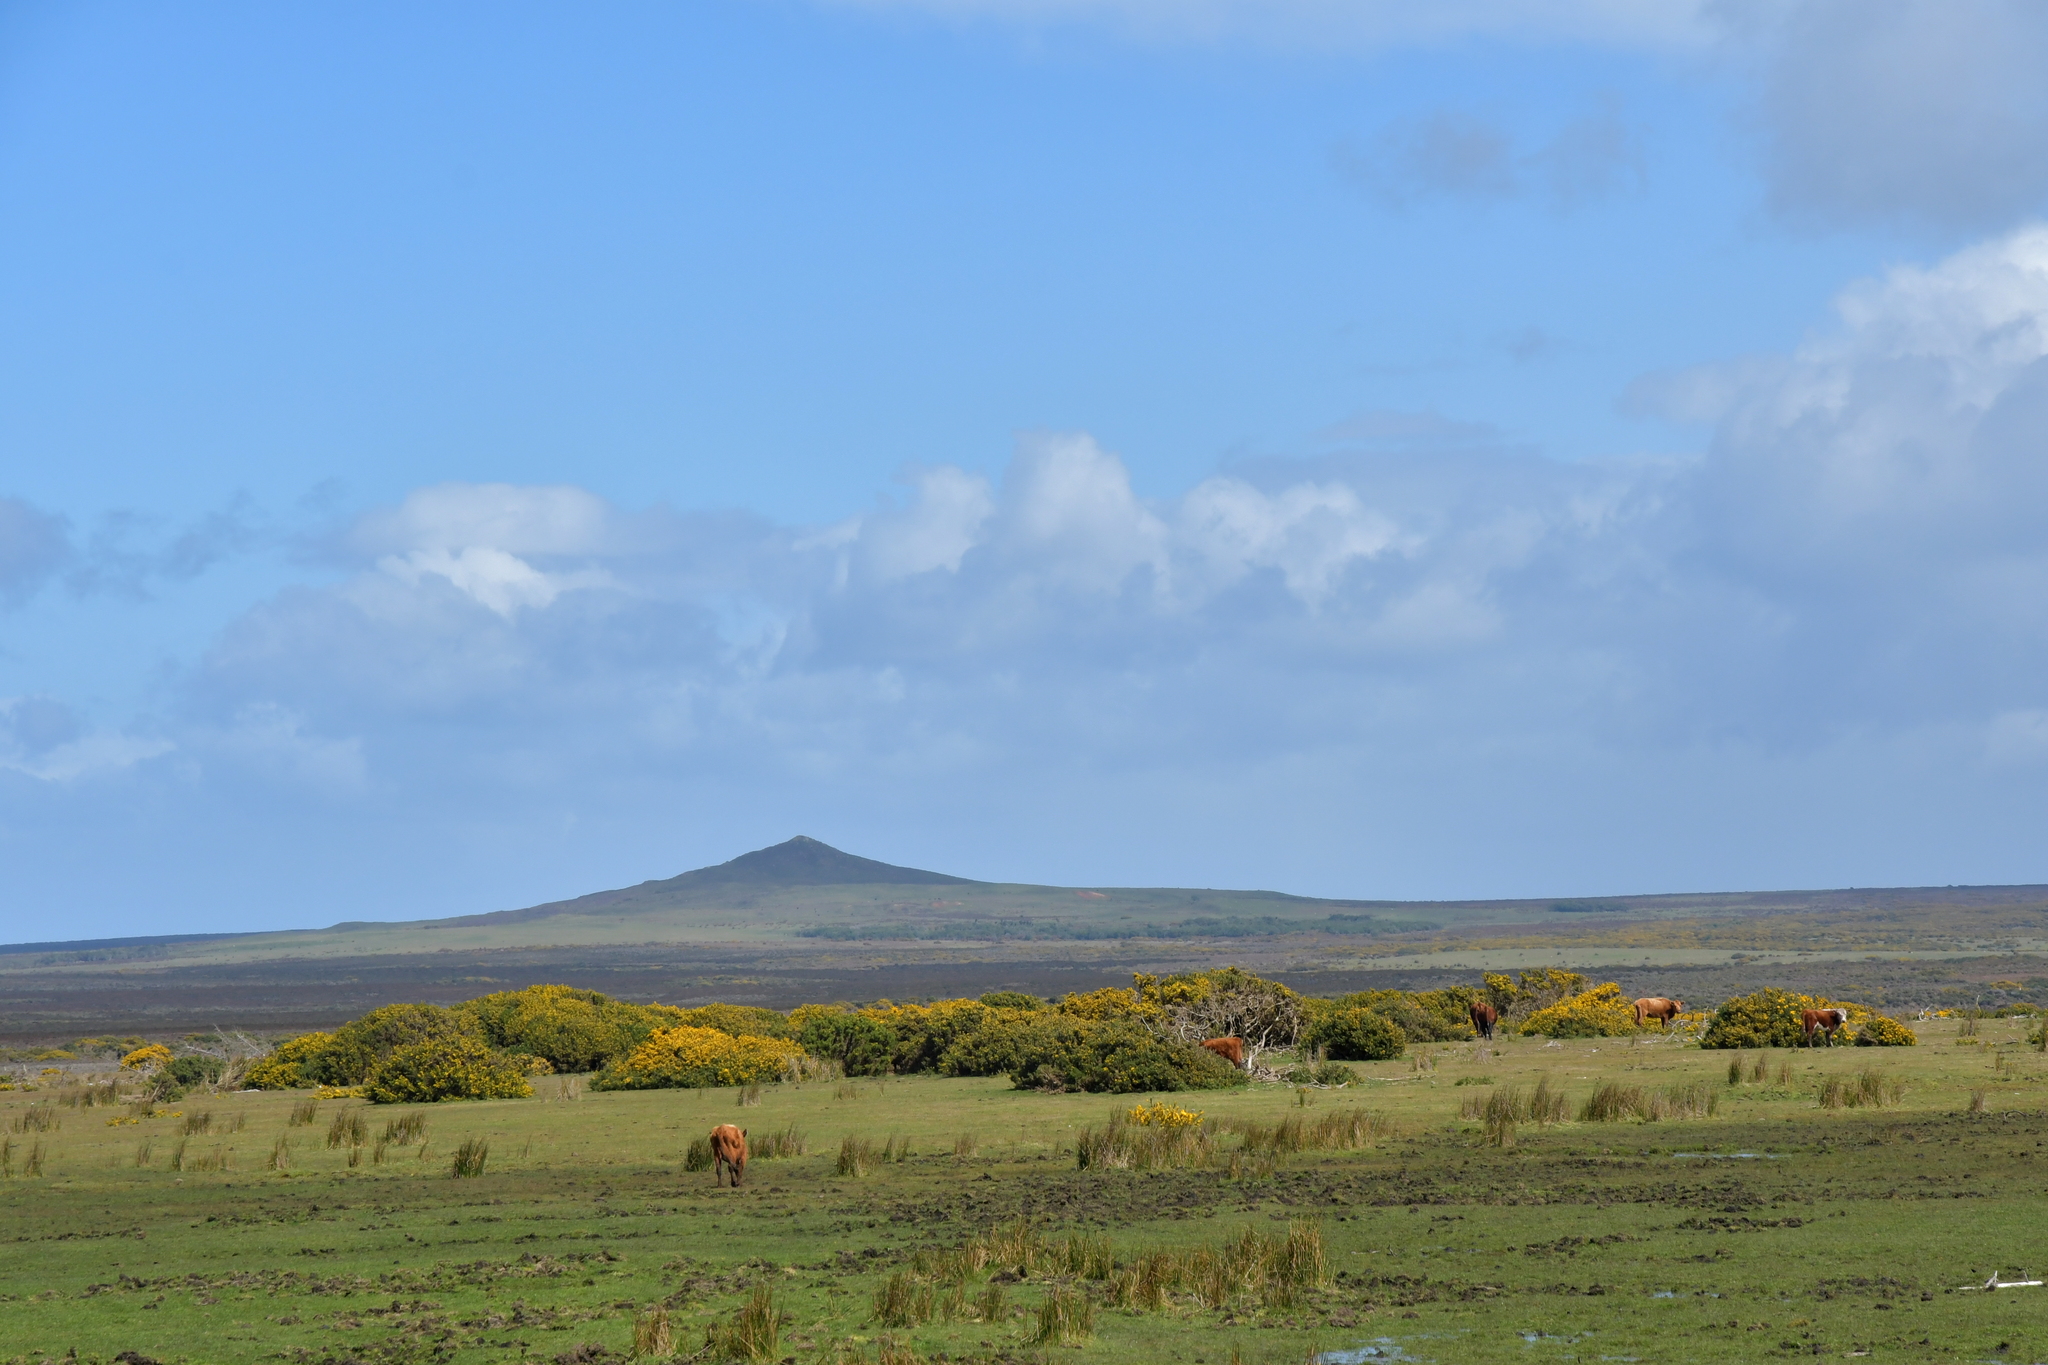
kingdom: Plantae
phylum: Tracheophyta
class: Magnoliopsida
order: Fabales
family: Fabaceae
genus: Ulex
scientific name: Ulex europaeus
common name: Common gorse
